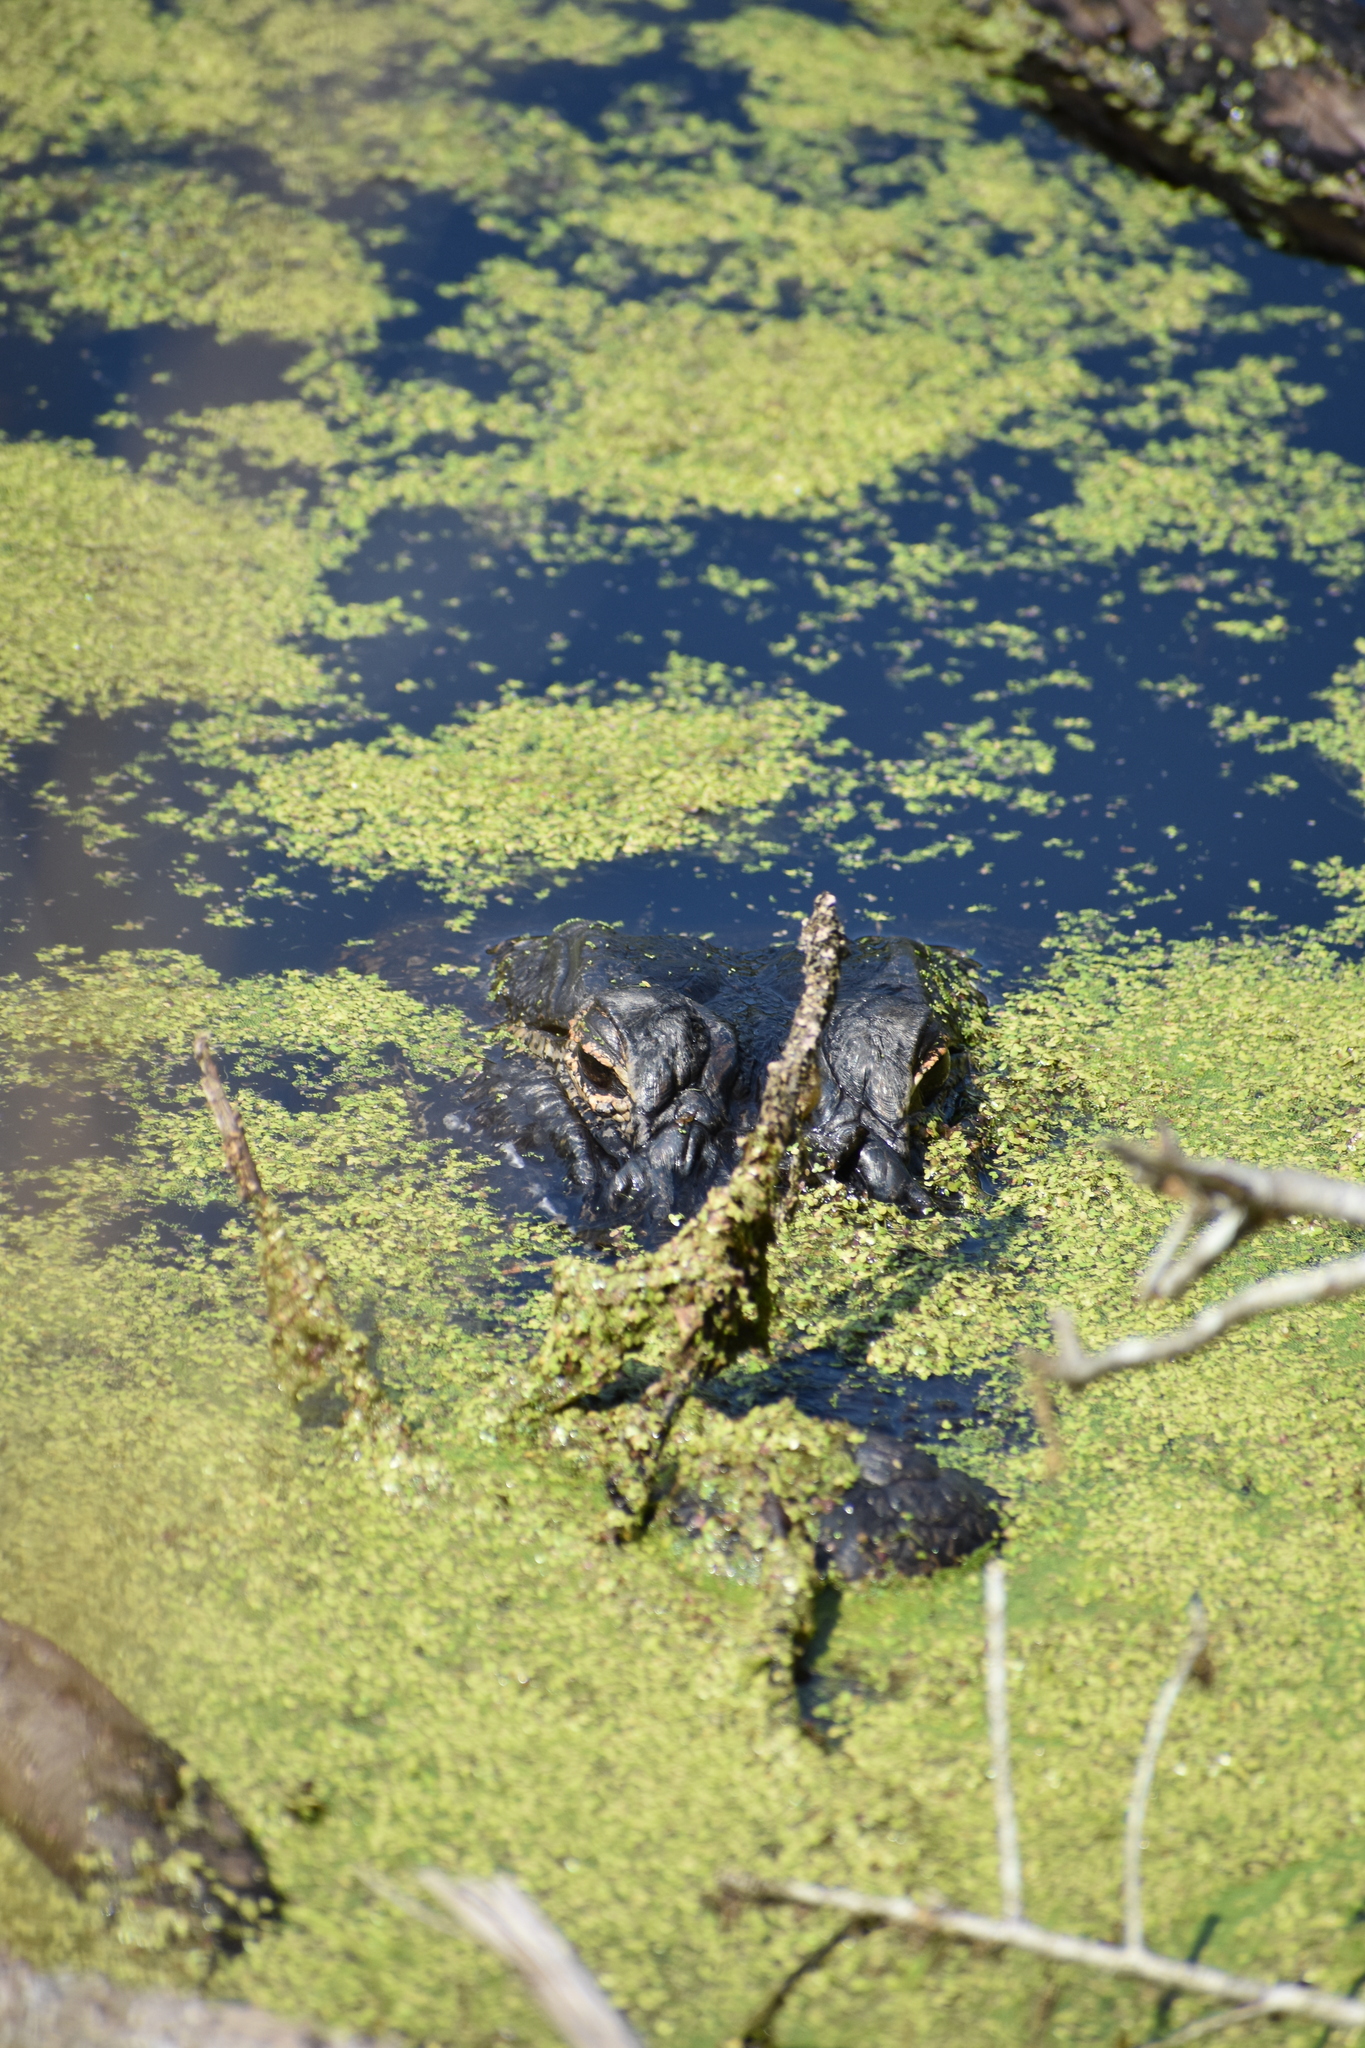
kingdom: Animalia
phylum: Chordata
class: Crocodylia
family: Alligatoridae
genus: Alligator
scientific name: Alligator mississippiensis
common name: American alligator
